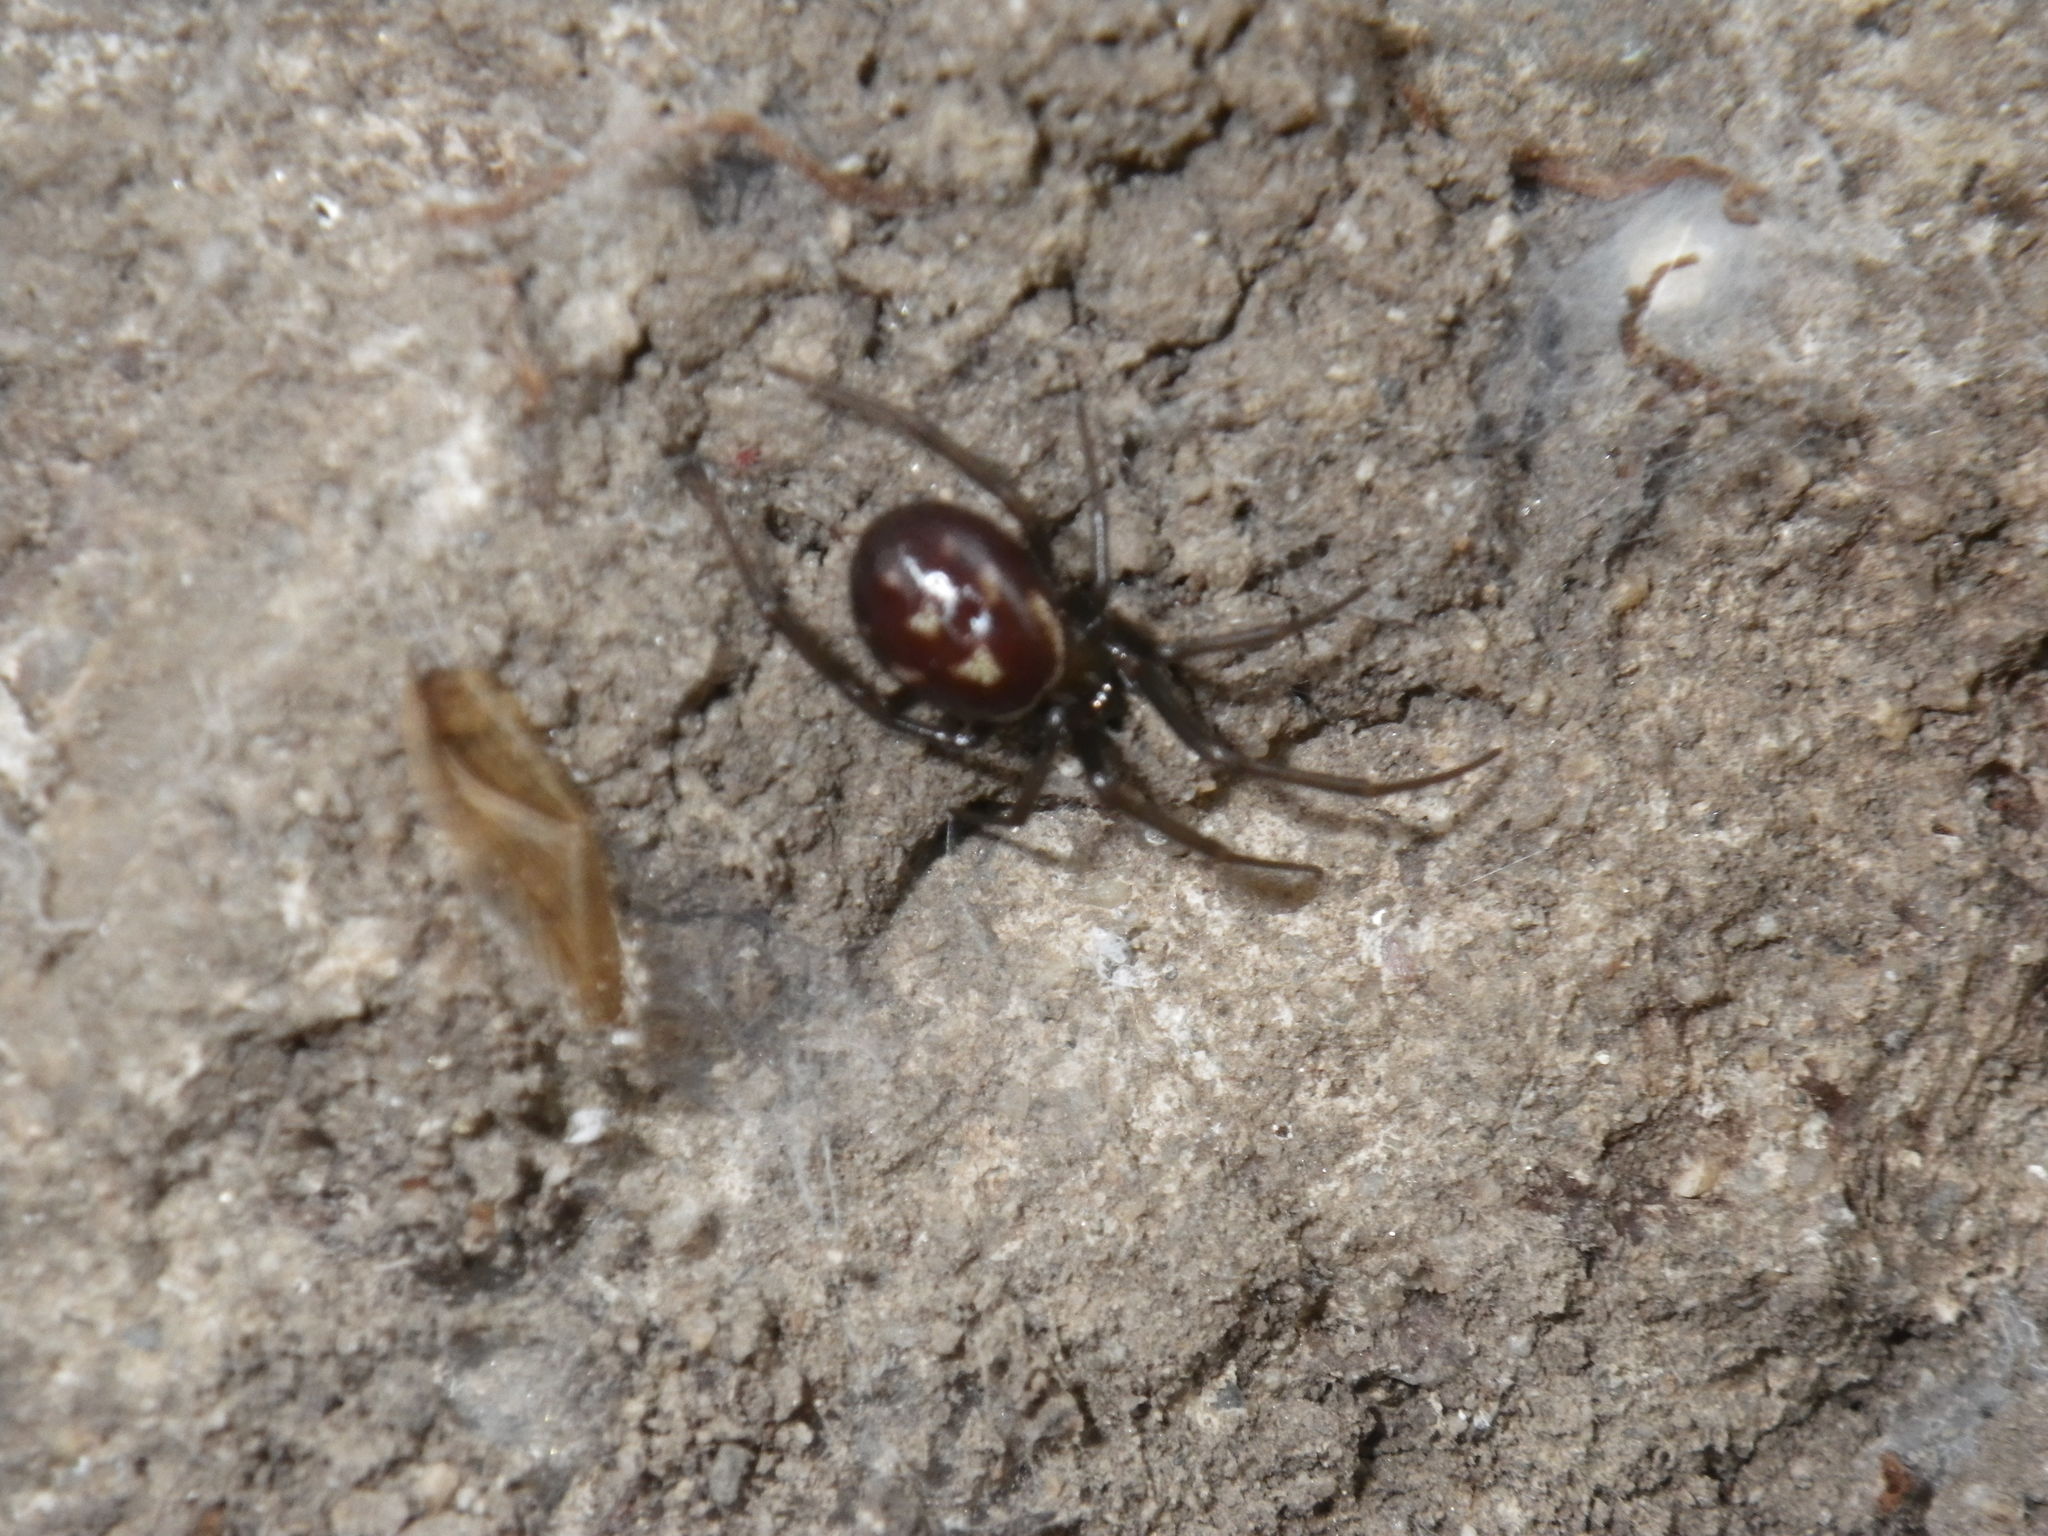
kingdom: Animalia
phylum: Arthropoda
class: Arachnida
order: Araneae
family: Theridiidae
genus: Steatoda
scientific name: Steatoda grossa
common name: False black widow
